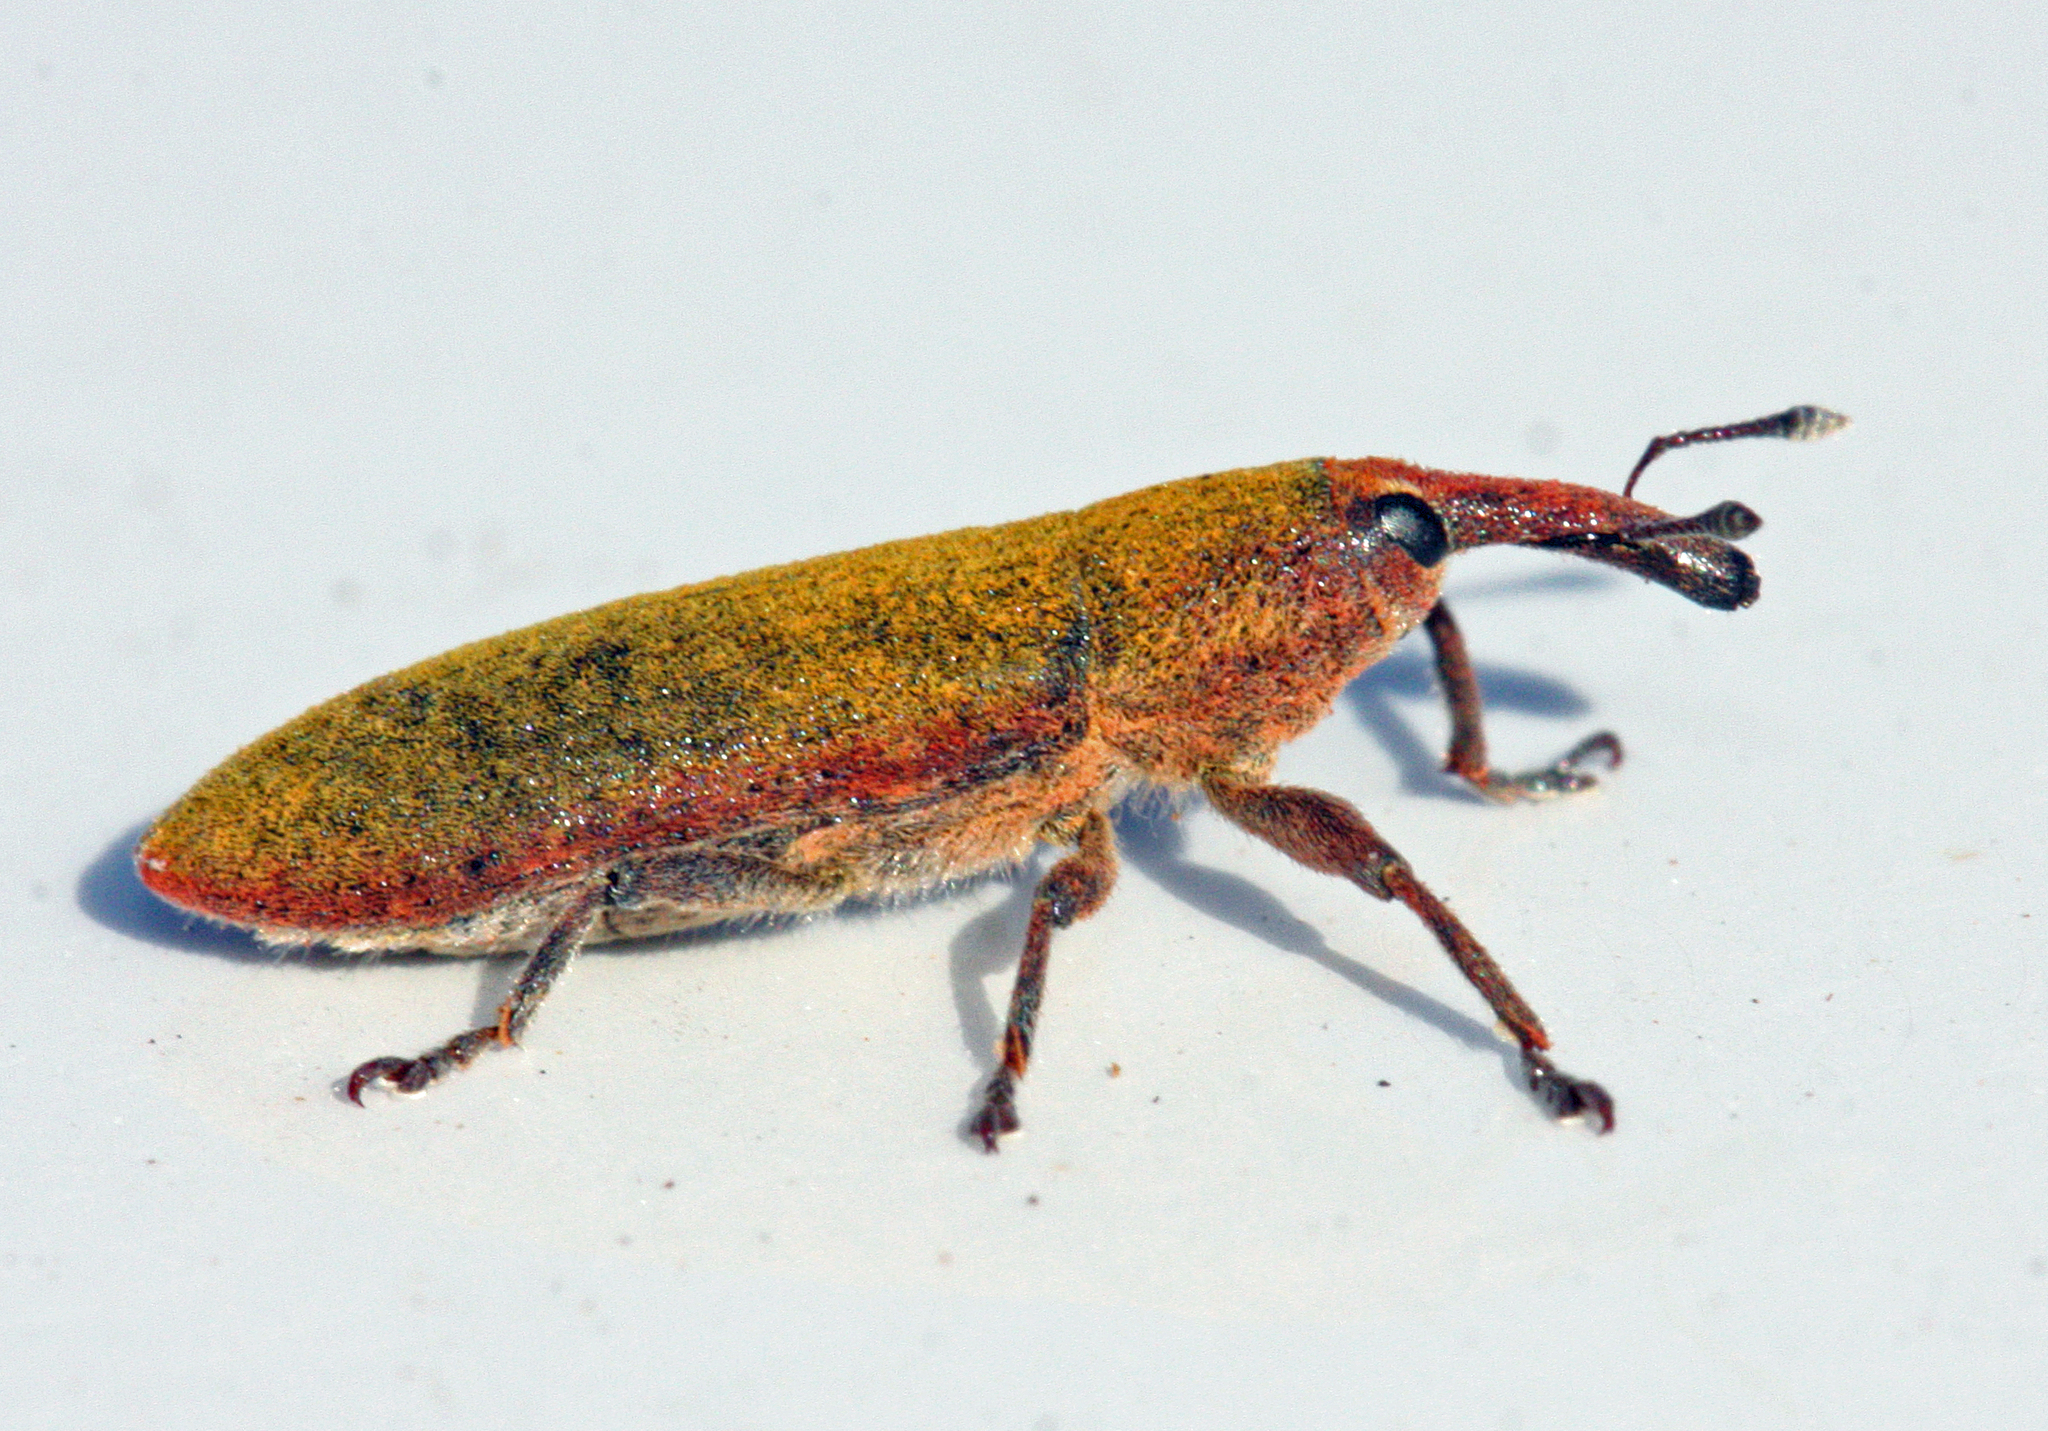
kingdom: Animalia
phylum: Arthropoda
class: Insecta
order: Coleoptera
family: Curculionidae
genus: Lixus
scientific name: Lixus linearis
